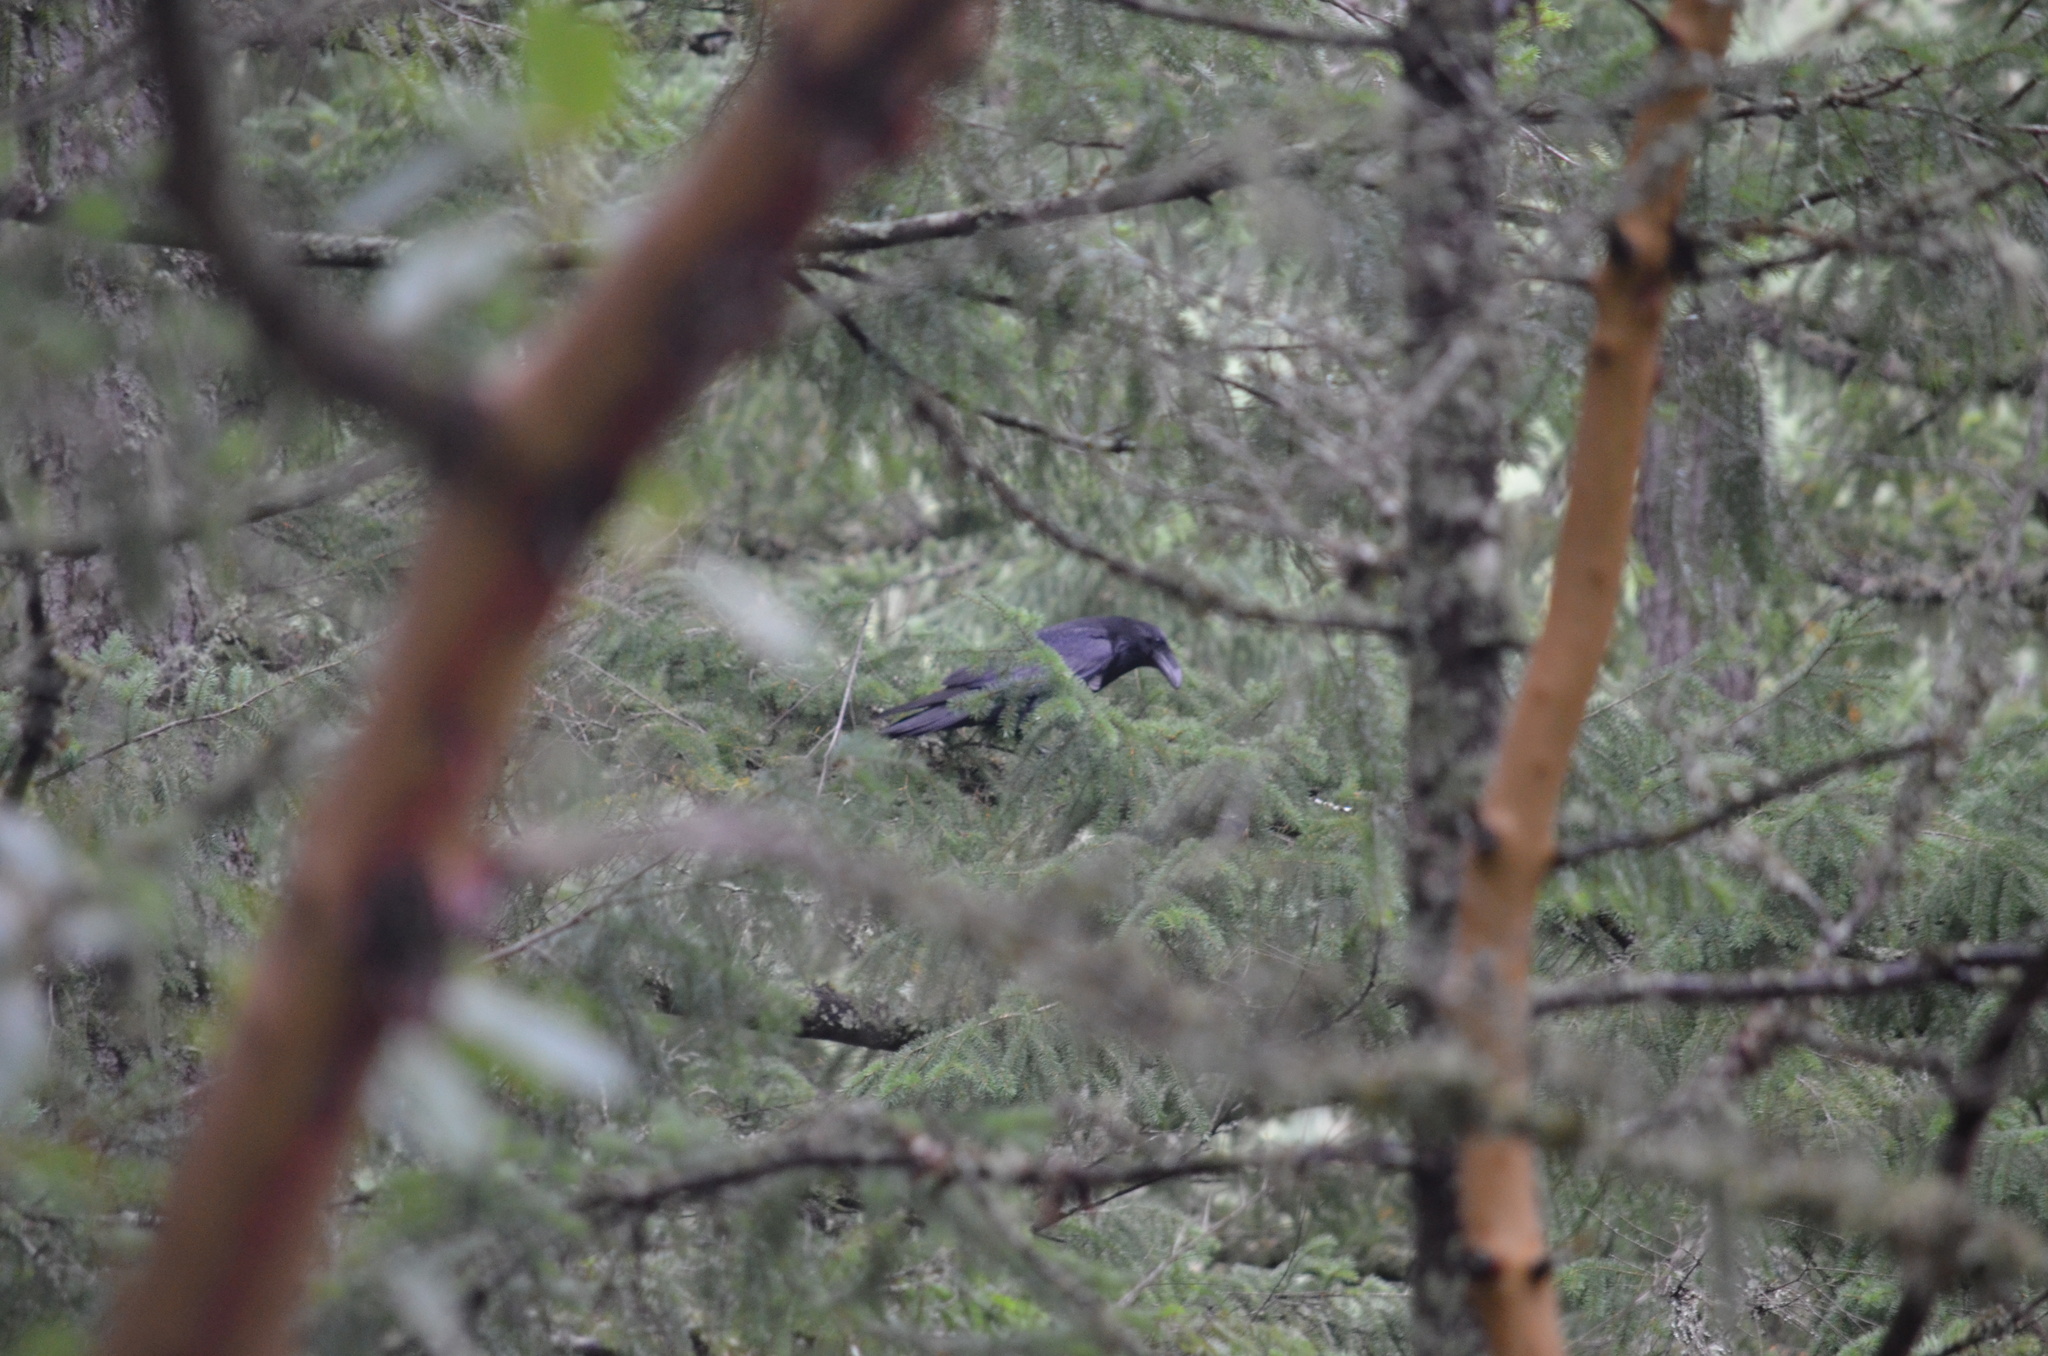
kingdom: Animalia
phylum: Chordata
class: Aves
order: Passeriformes
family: Corvidae
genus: Corvus
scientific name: Corvus corax
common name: Common raven
